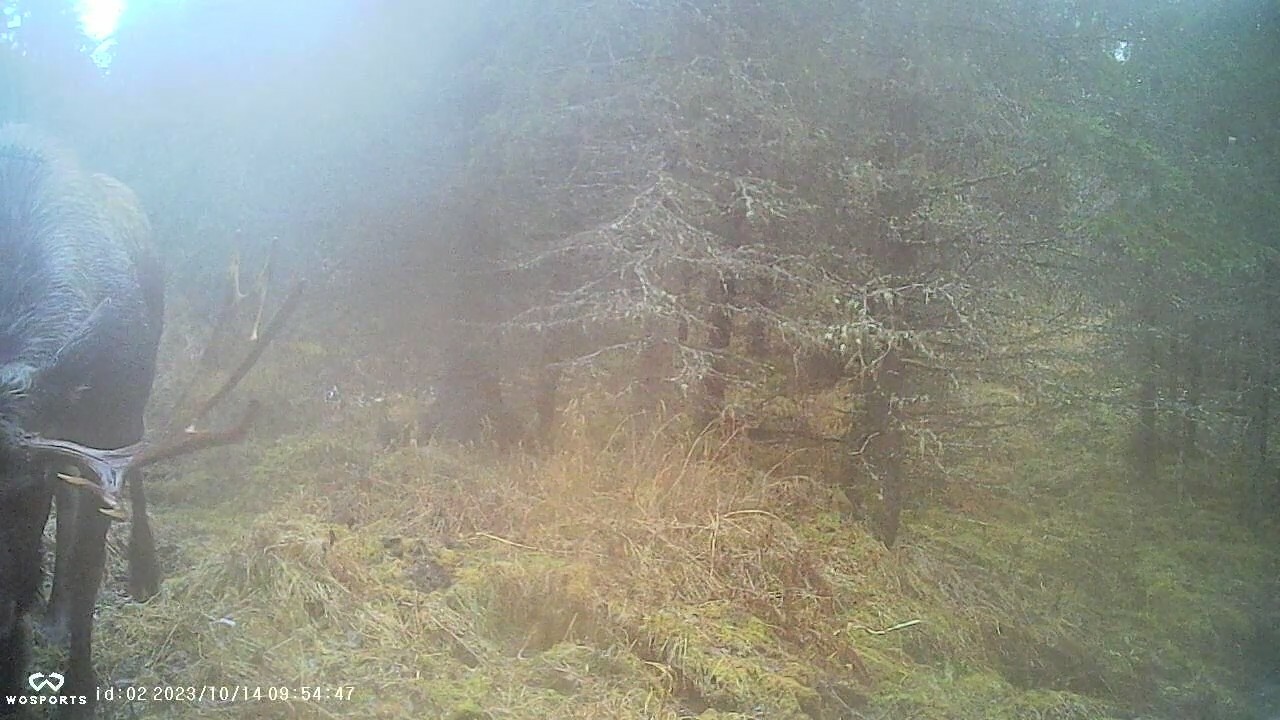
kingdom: Animalia
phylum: Chordata
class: Mammalia
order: Artiodactyla
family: Cervidae
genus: Alces
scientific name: Alces alces
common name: Moose
